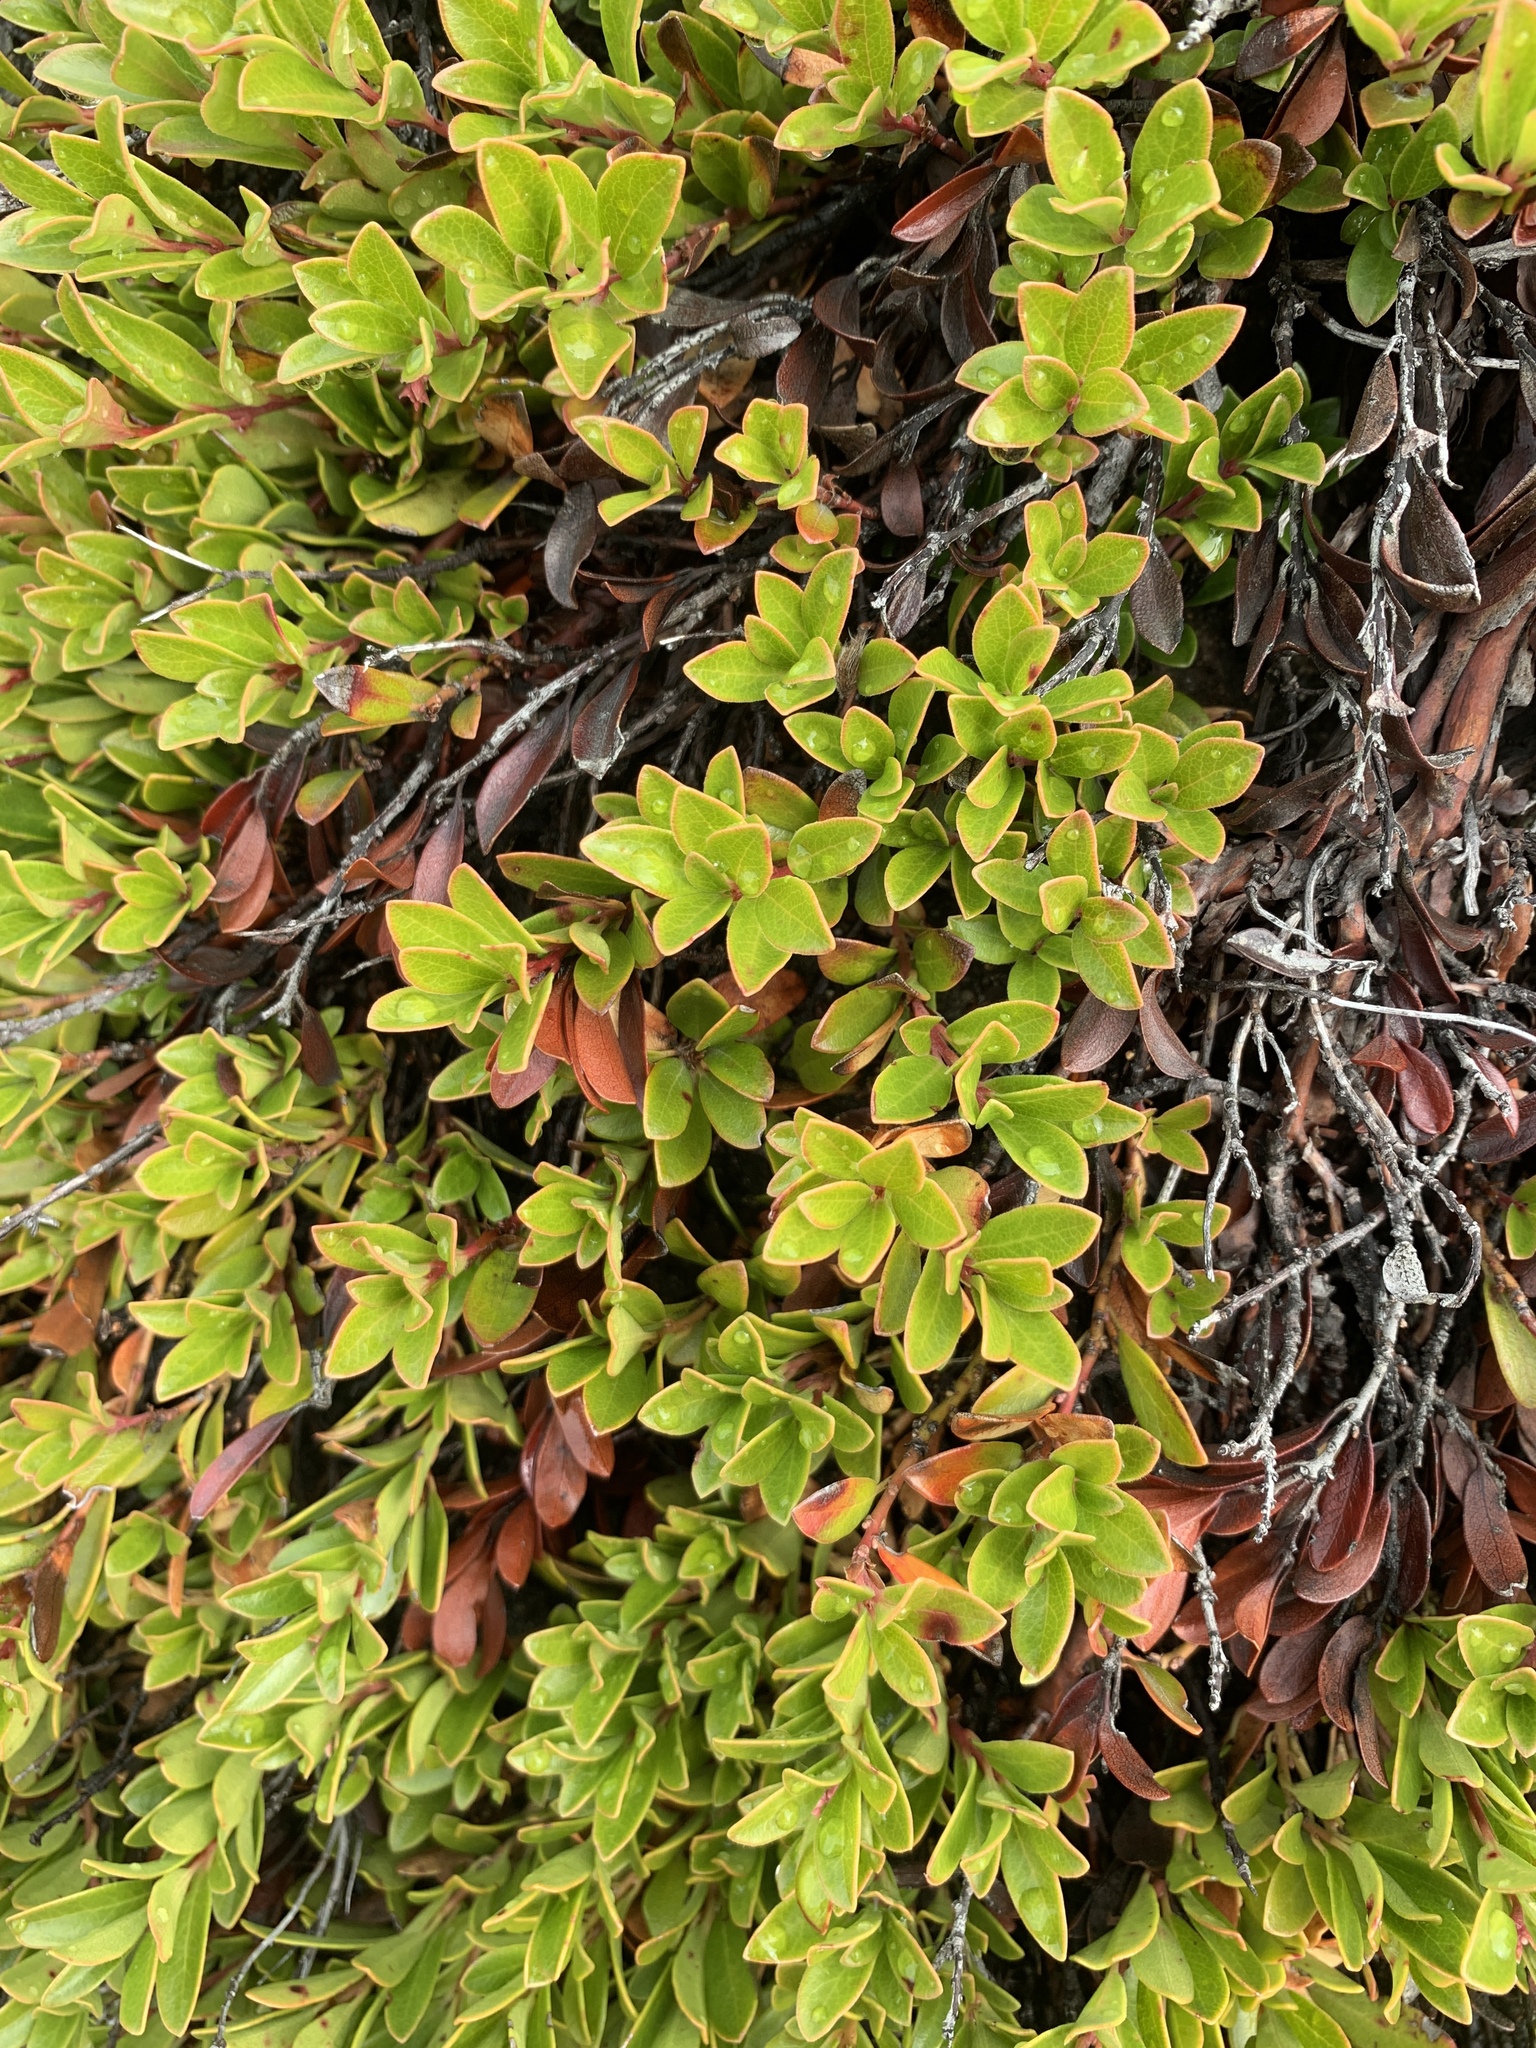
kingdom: Plantae
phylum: Tracheophyta
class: Magnoliopsida
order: Ericales
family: Ericaceae
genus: Arctostaphylos
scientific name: Arctostaphylos uva-ursi
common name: Bearberry
